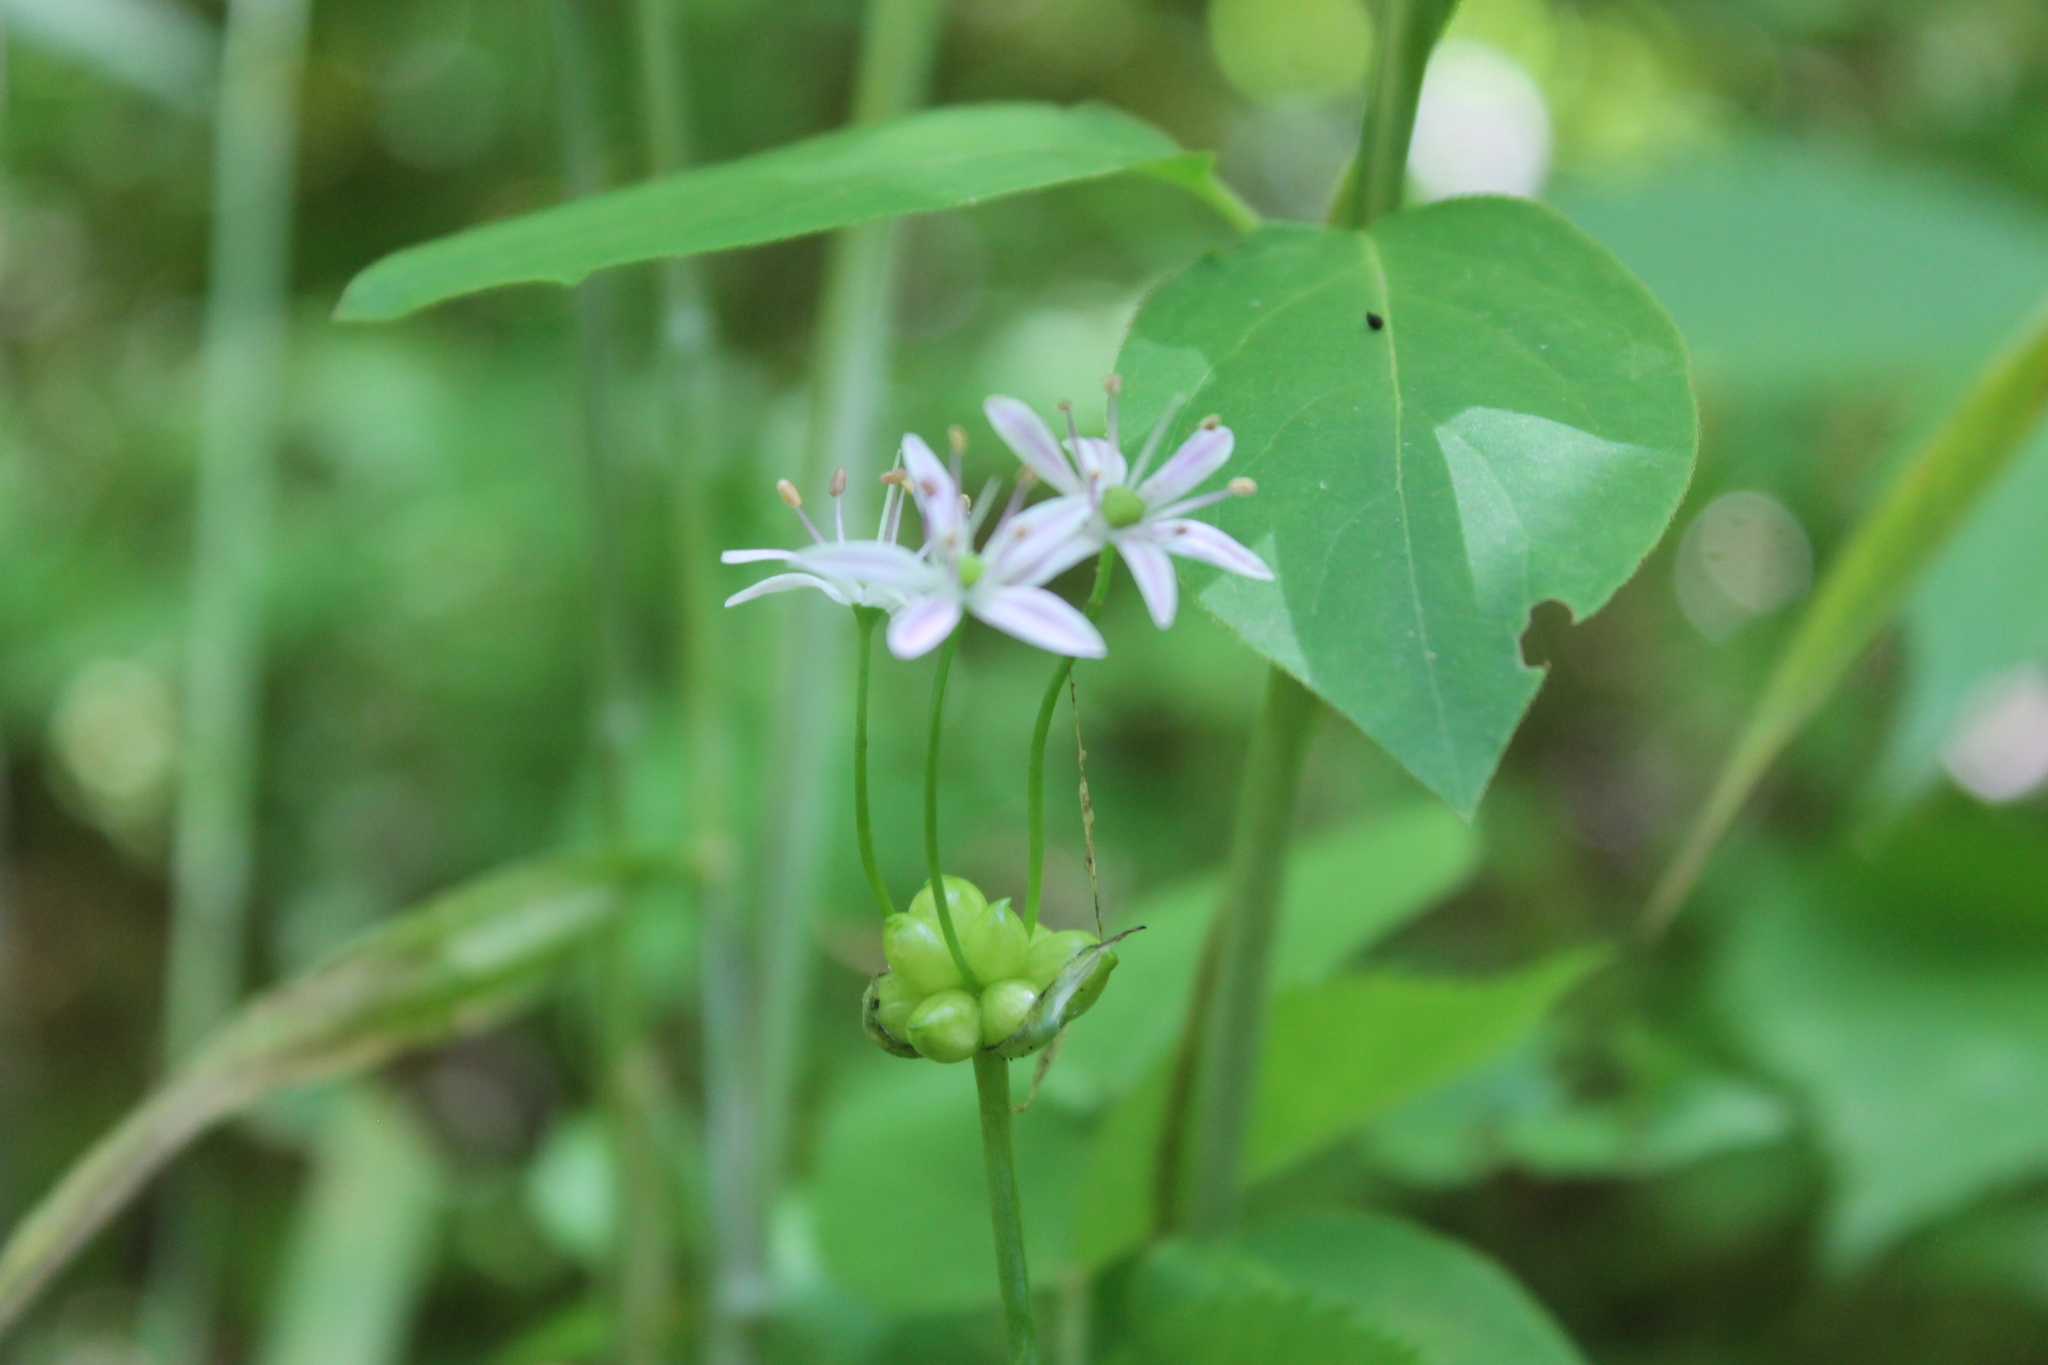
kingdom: Plantae
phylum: Tracheophyta
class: Liliopsida
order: Asparagales
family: Amaryllidaceae
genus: Allium
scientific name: Allium canadense
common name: Meadow garlic
